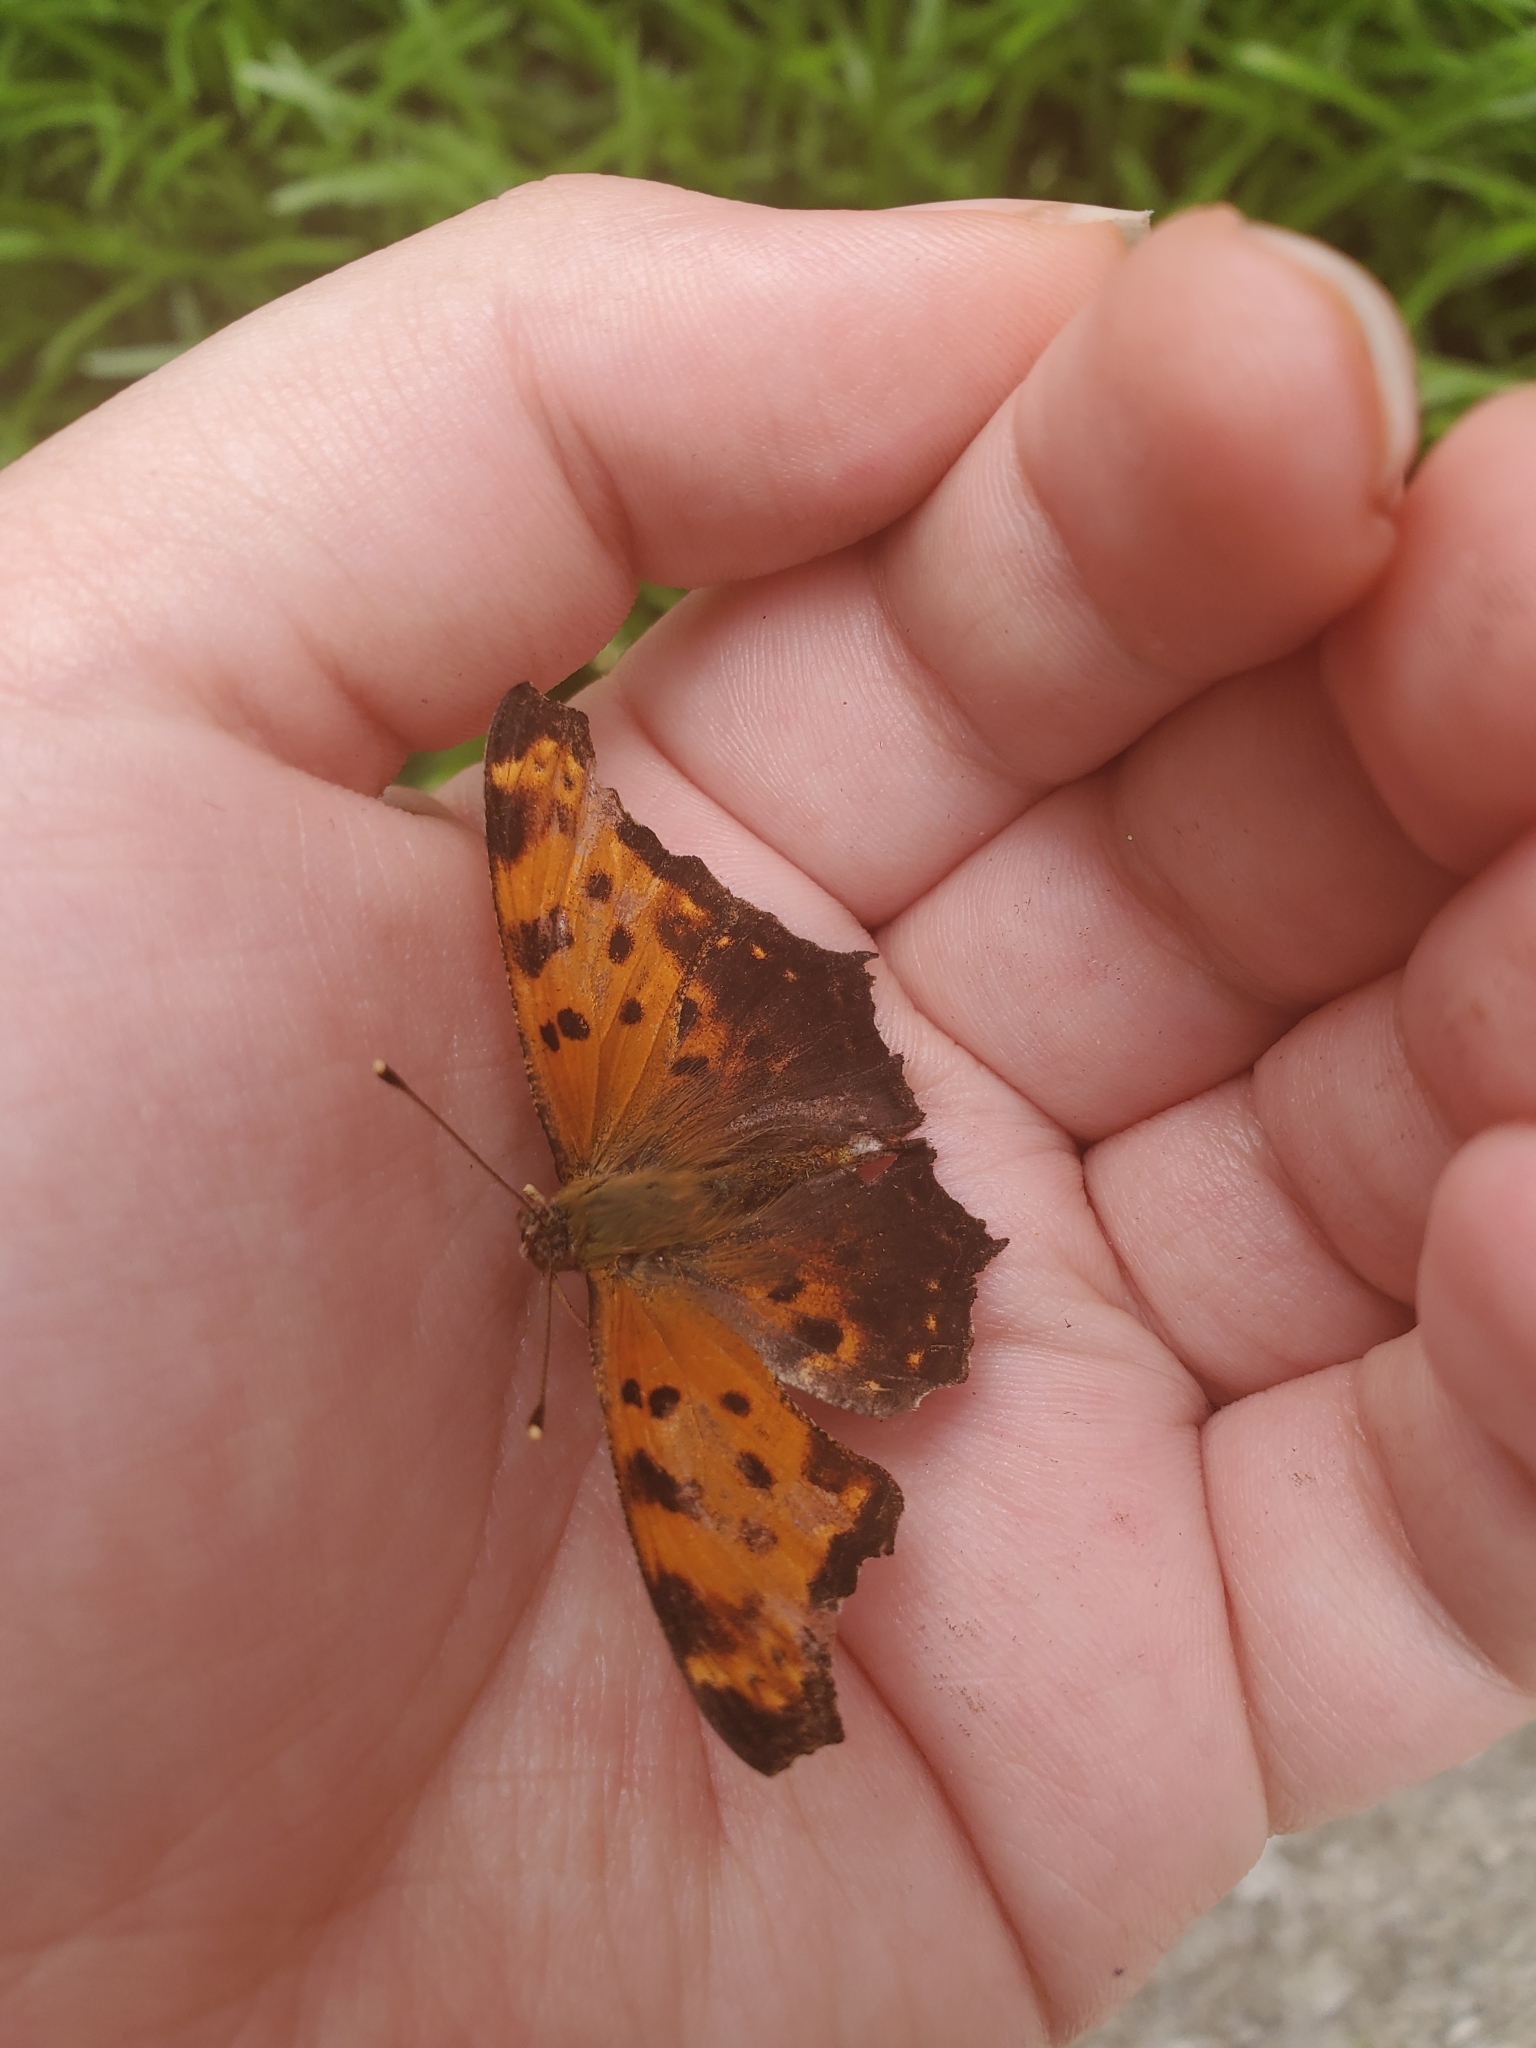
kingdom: Animalia
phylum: Arthropoda
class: Insecta
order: Lepidoptera
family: Nymphalidae
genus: Polygonia
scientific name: Polygonia comma
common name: Eastern comma
